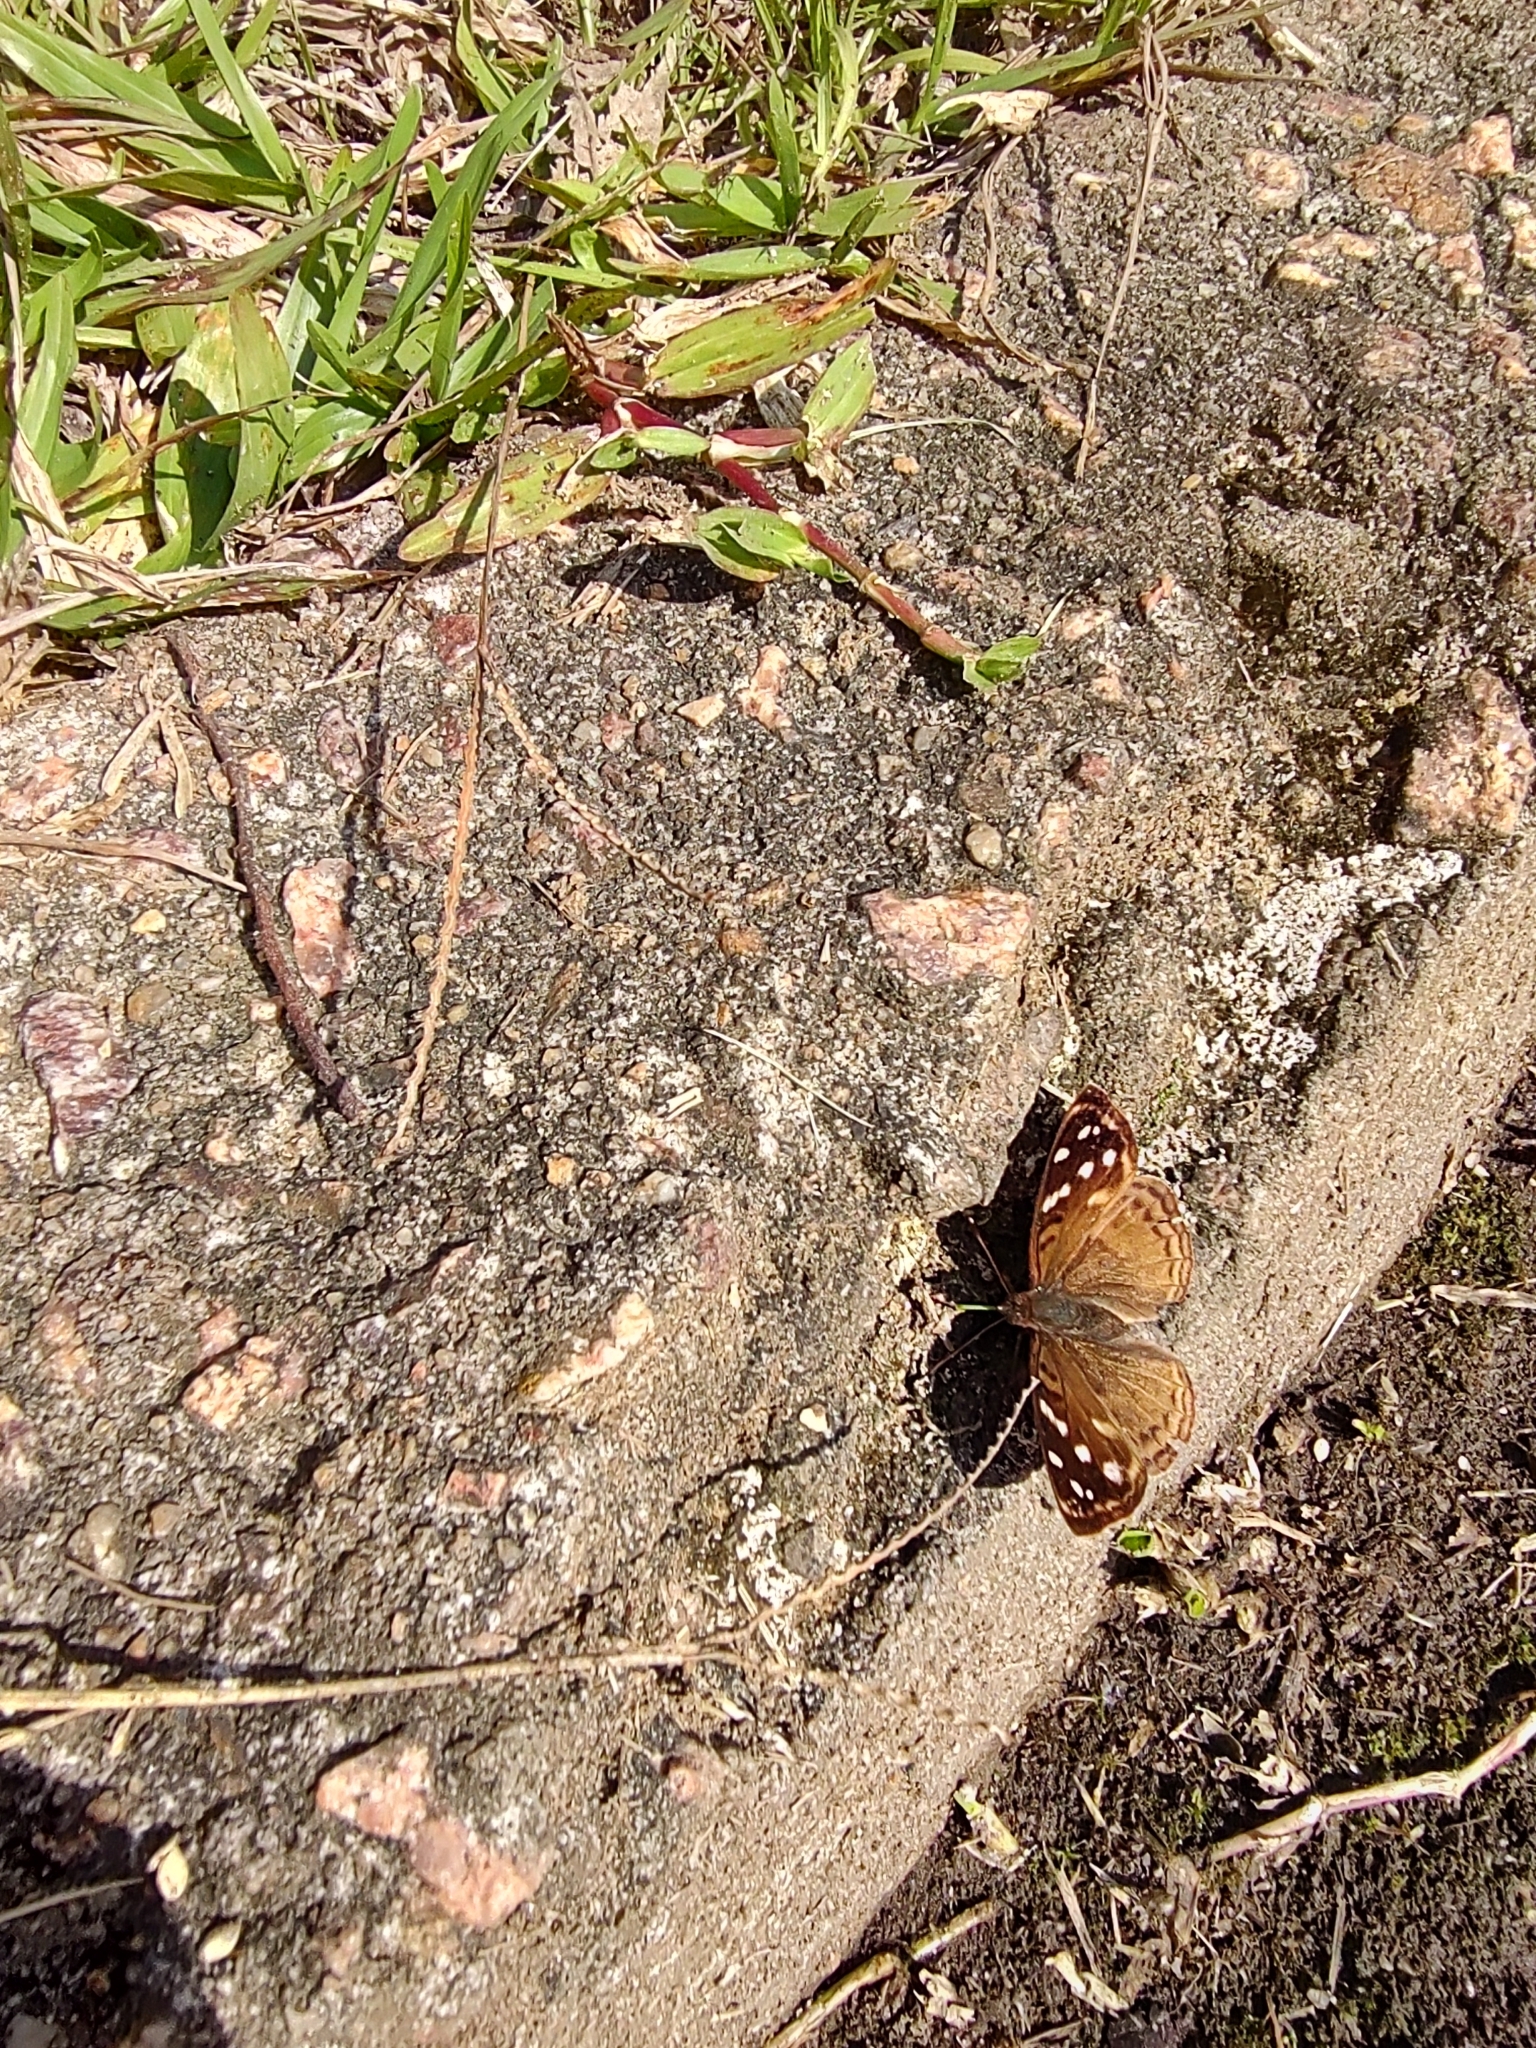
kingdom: Animalia
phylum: Arthropoda
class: Insecta
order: Lepidoptera
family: Nymphalidae
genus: Doxocopa
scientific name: Doxocopa kallina
